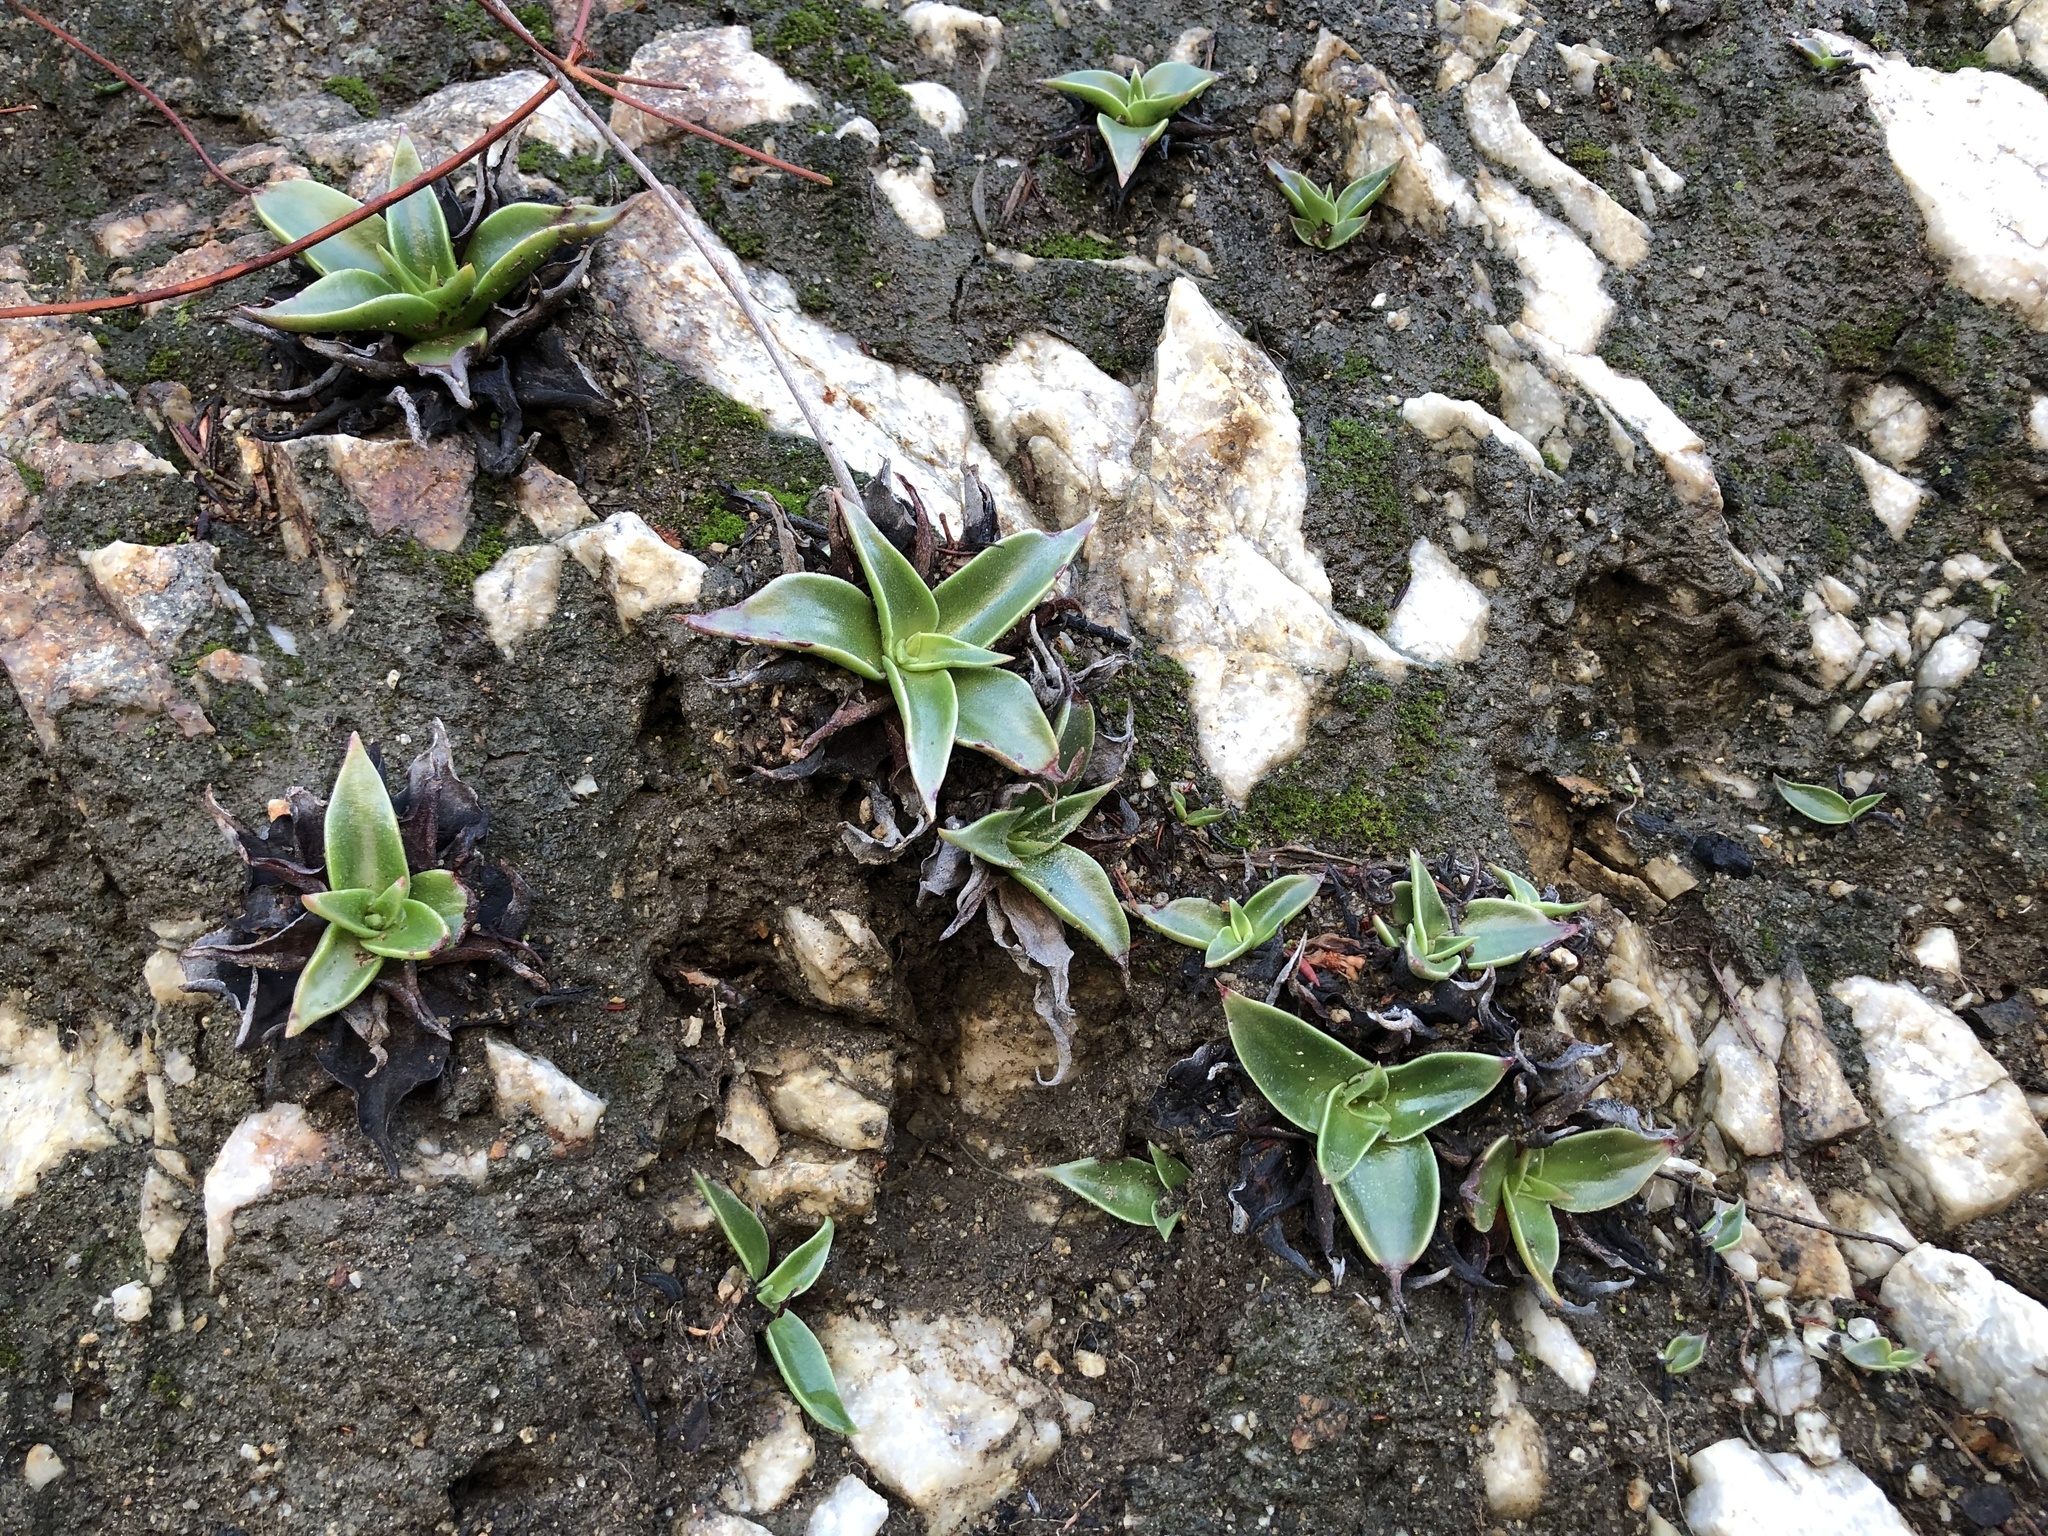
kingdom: Plantae
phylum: Tracheophyta
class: Magnoliopsida
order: Saxifragales
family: Crassulaceae
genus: Dudleya
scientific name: Dudleya lanceolata
